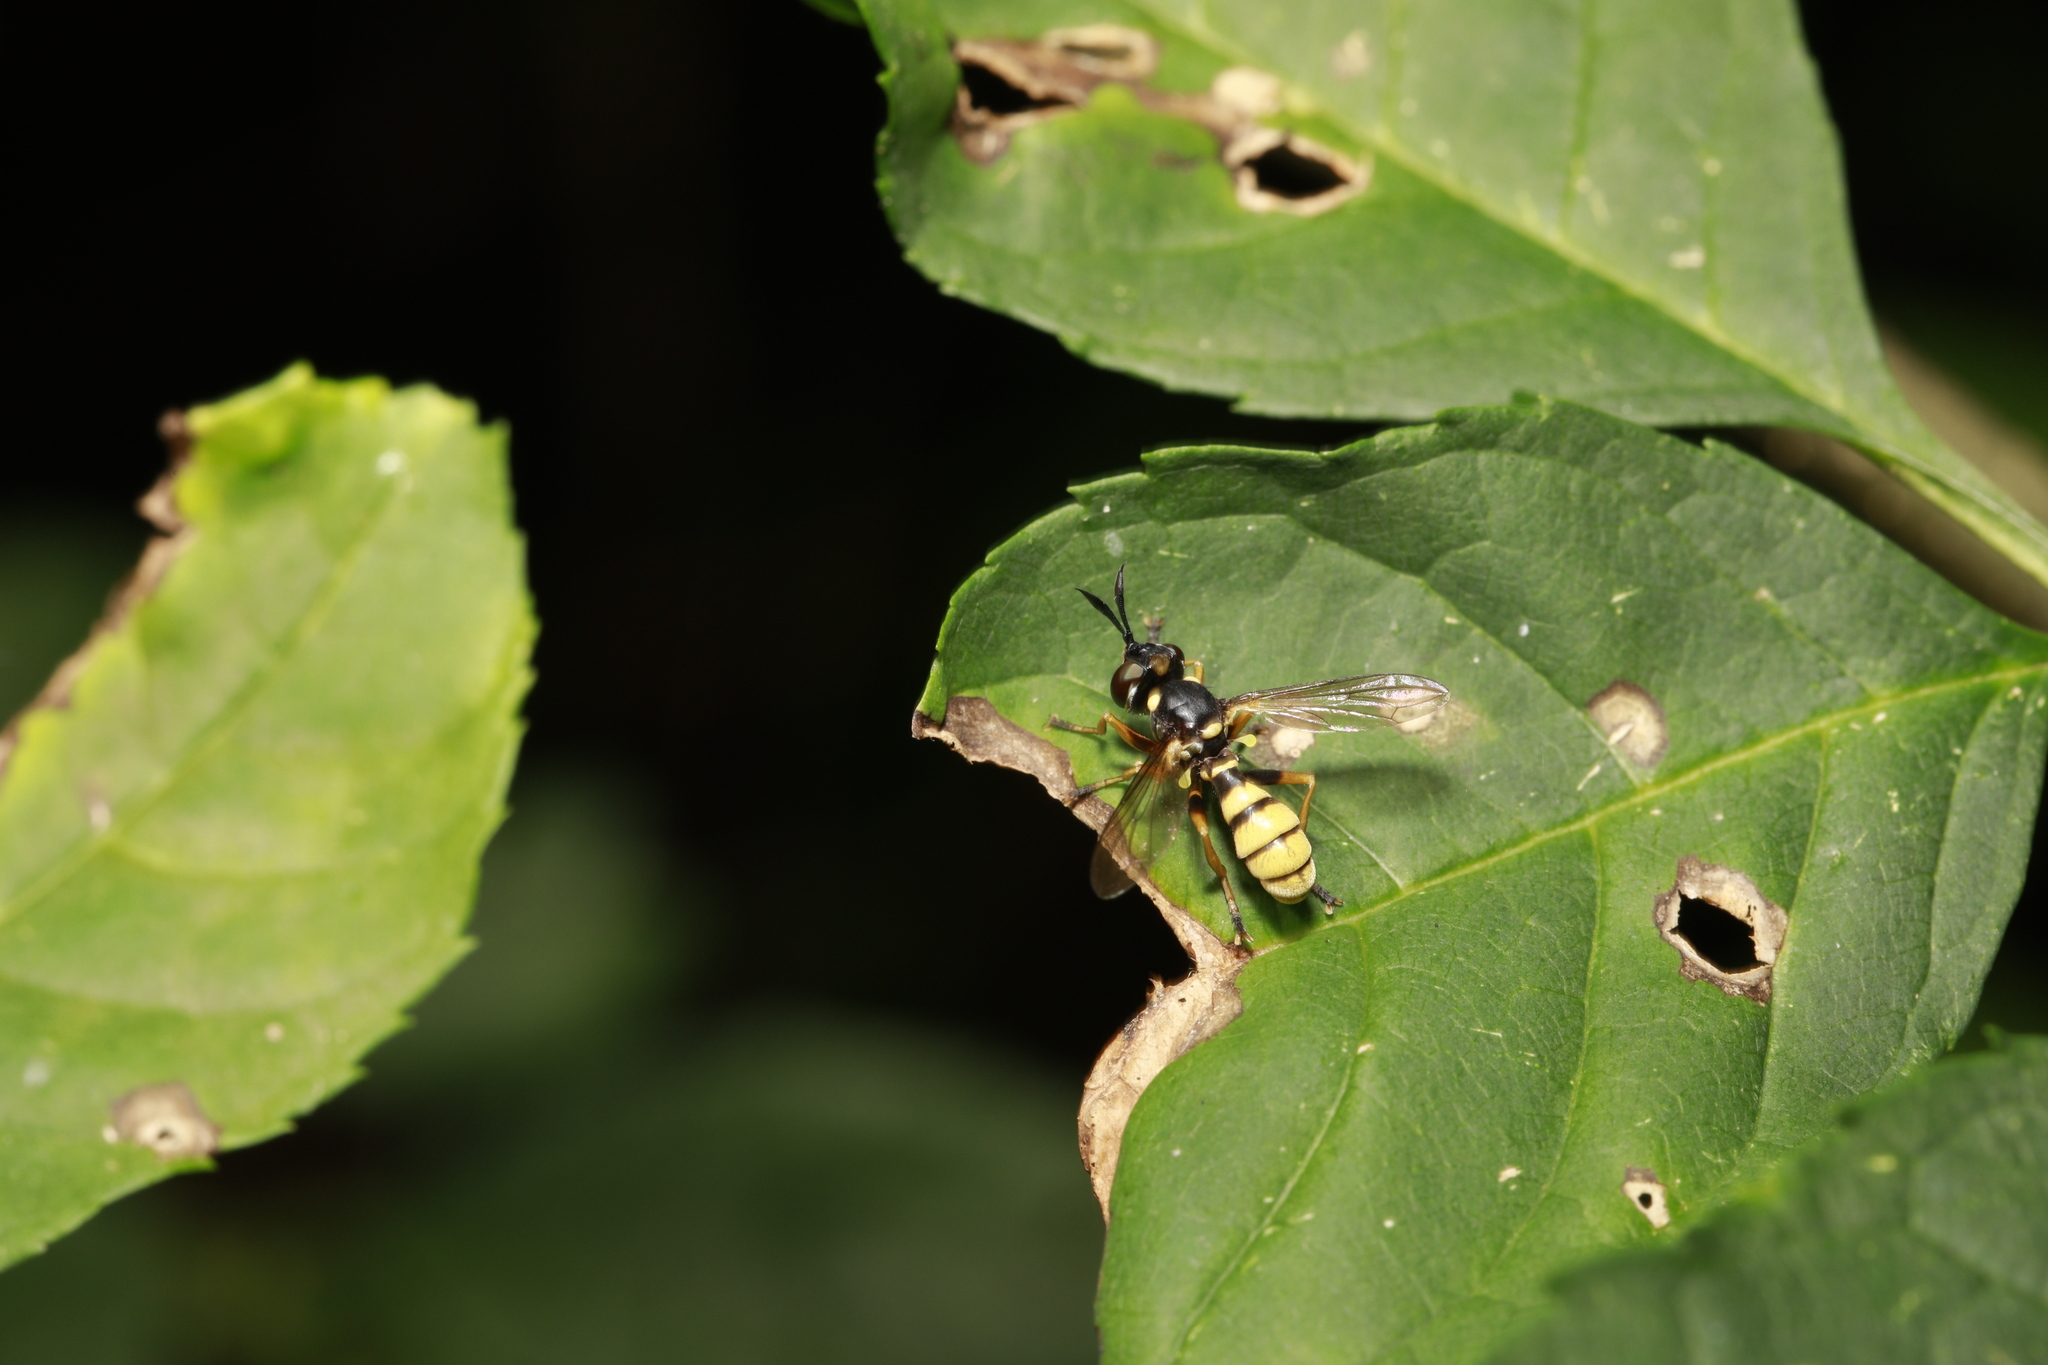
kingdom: Animalia
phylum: Arthropoda
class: Insecta
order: Diptera
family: Conopidae
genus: Leopoldius
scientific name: Leopoldius signatus
